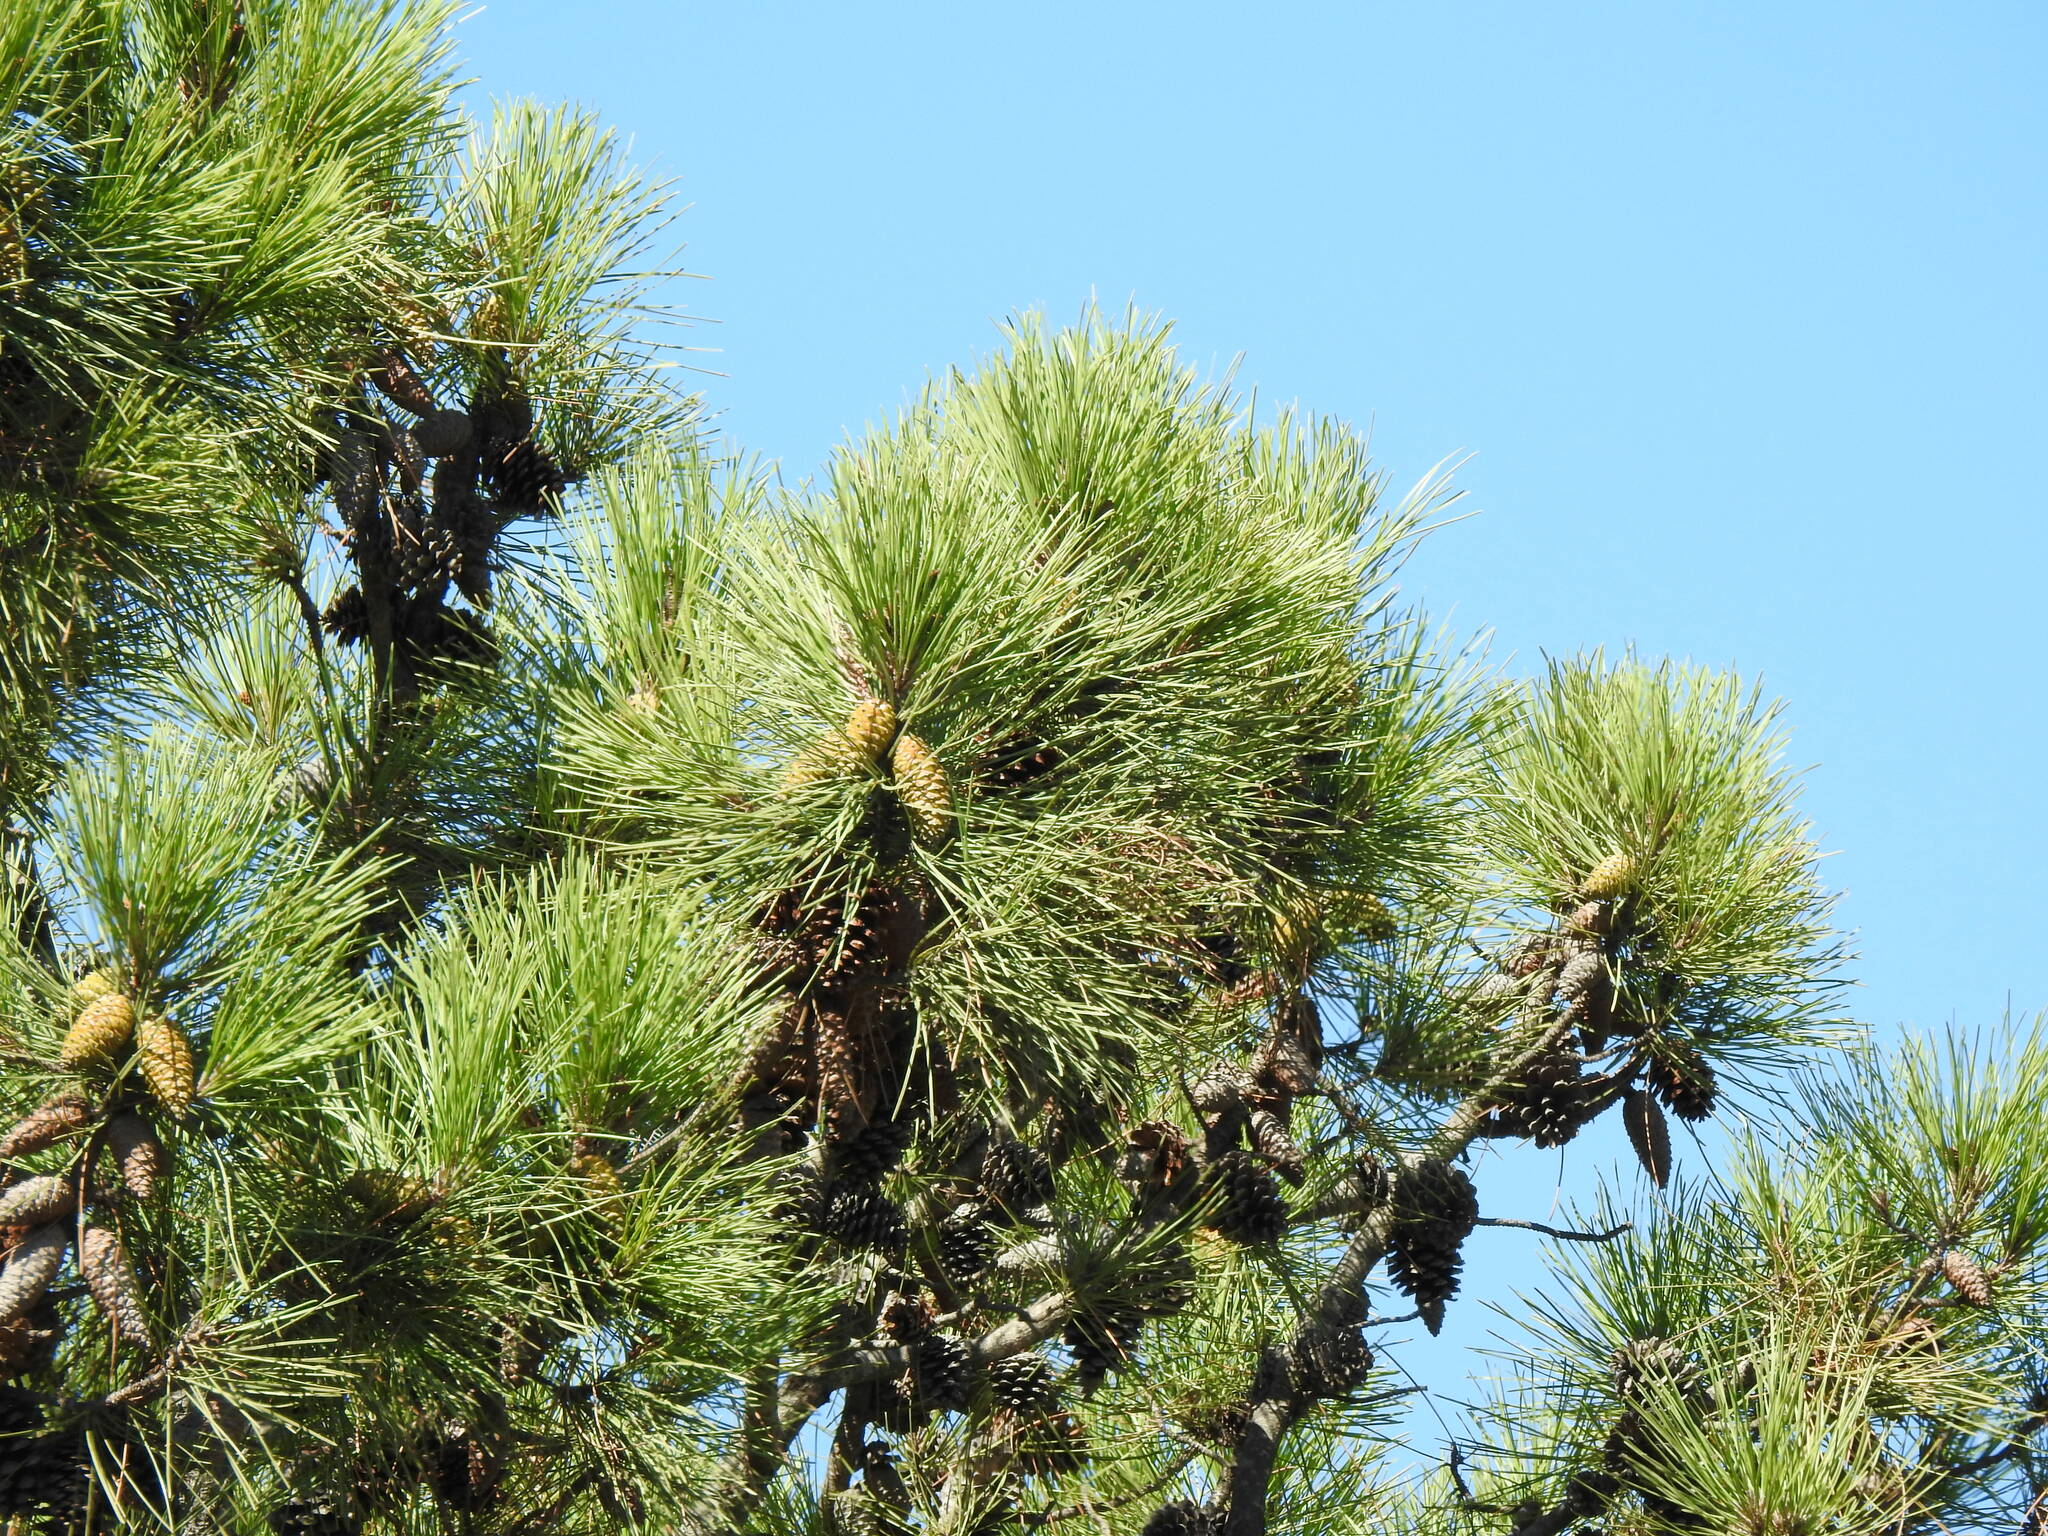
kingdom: Plantae
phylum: Tracheophyta
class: Pinopsida
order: Pinales
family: Pinaceae
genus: Pinus
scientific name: Pinus pinaster
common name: Maritime pine
